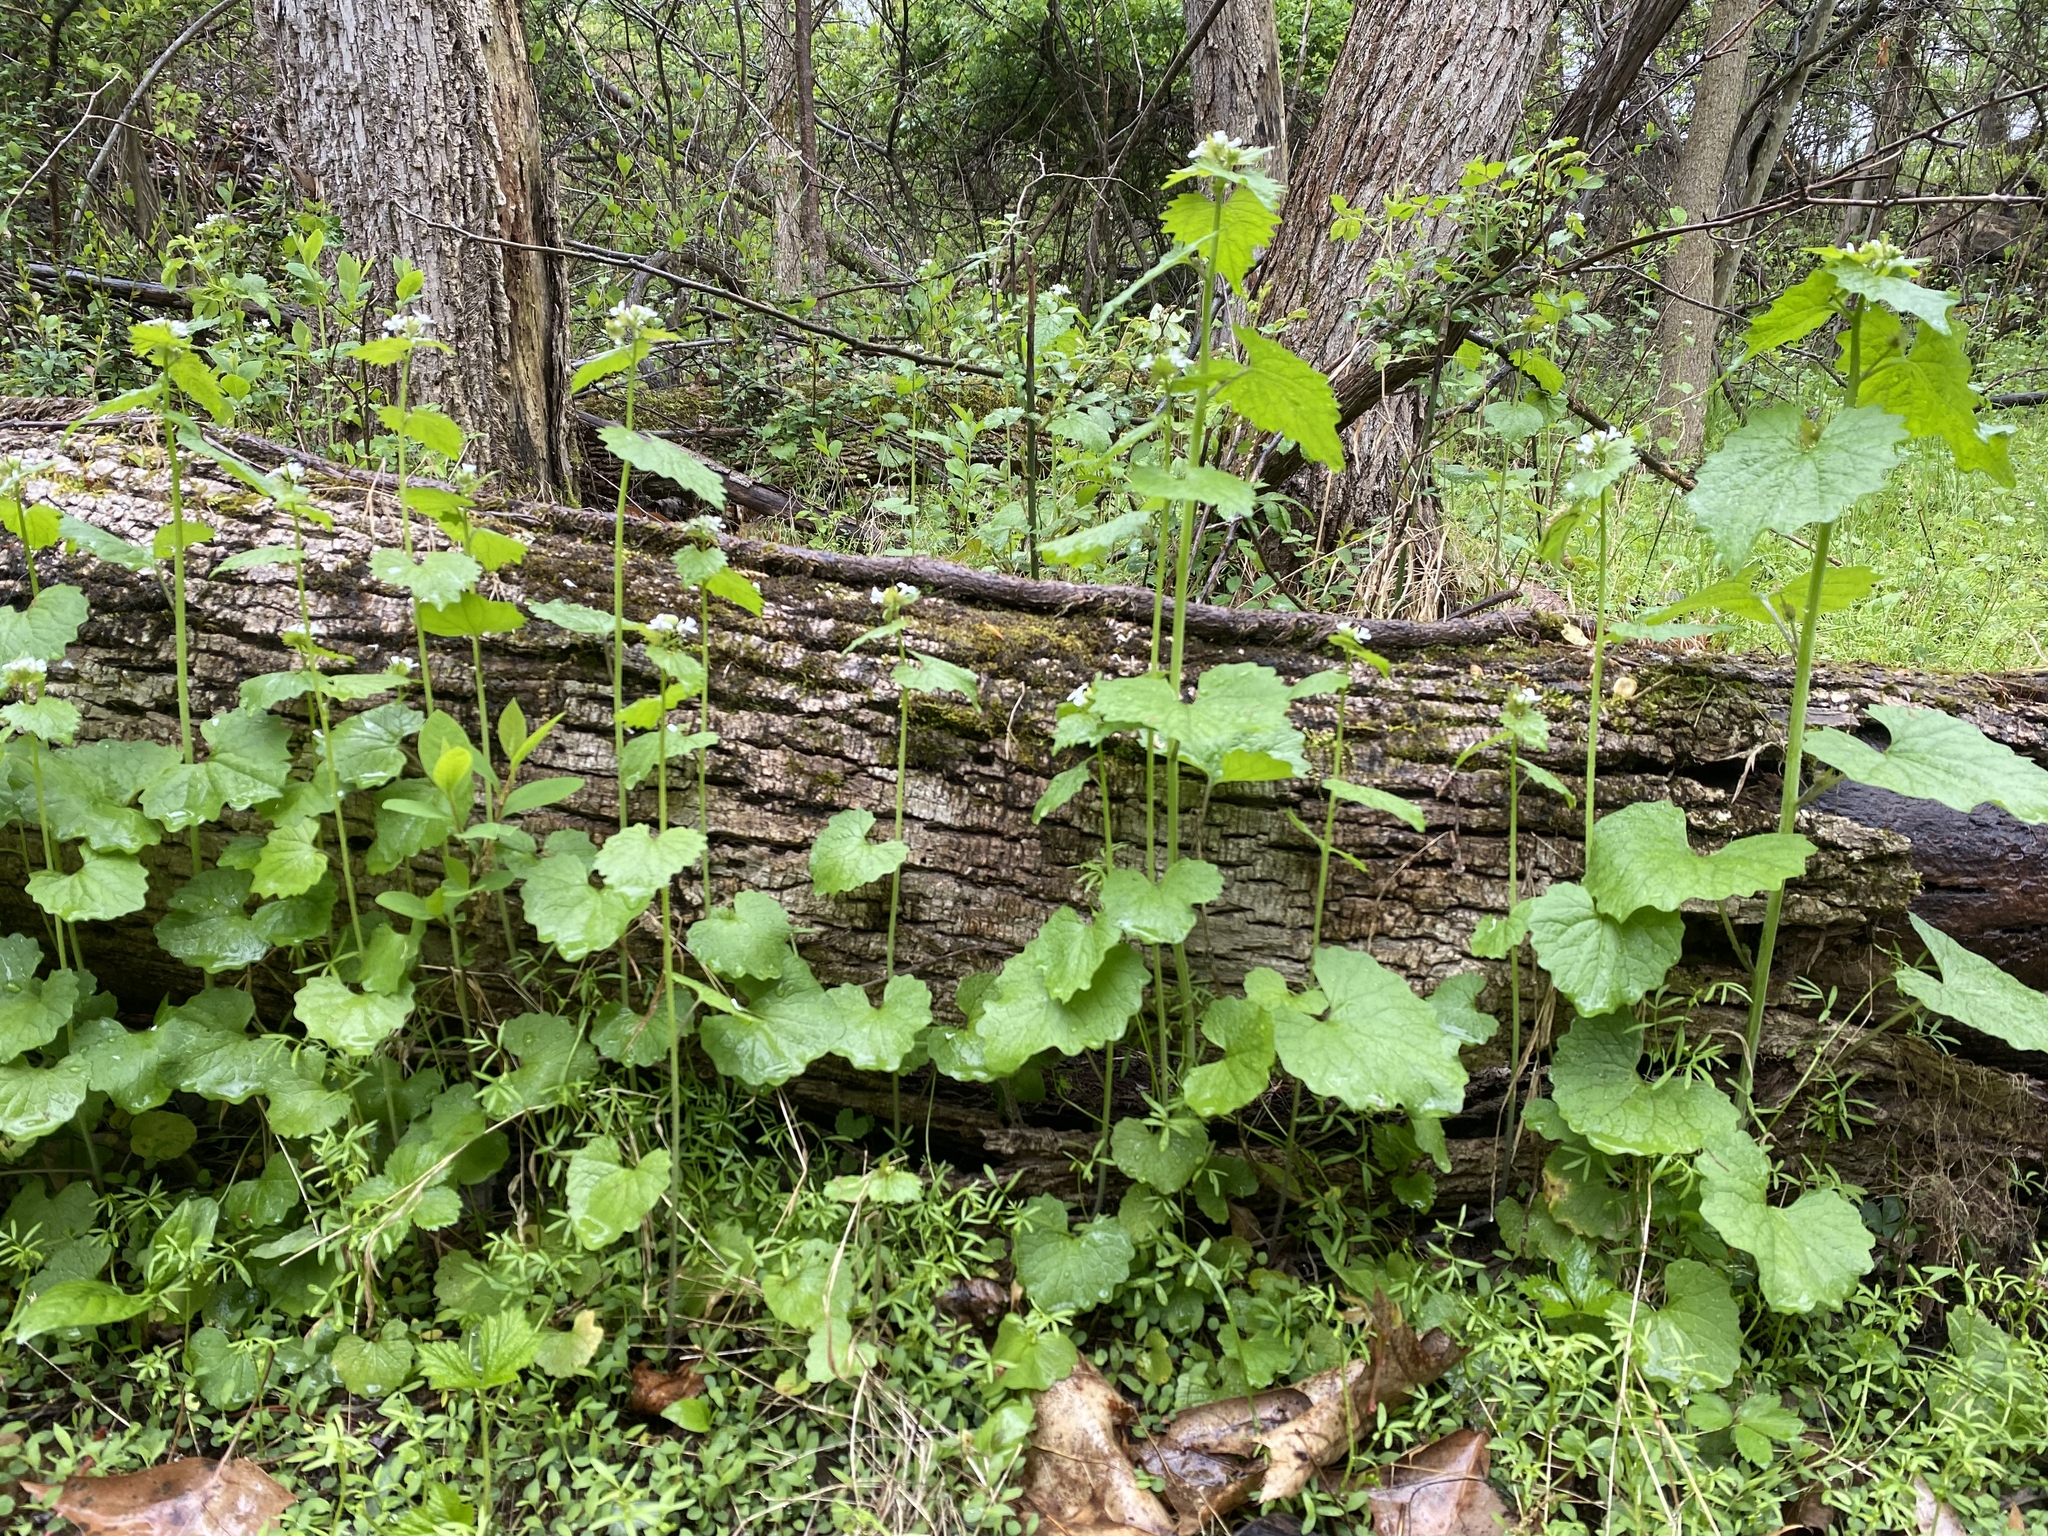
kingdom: Plantae
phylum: Tracheophyta
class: Magnoliopsida
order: Brassicales
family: Brassicaceae
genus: Alliaria
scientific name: Alliaria petiolata
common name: Garlic mustard
